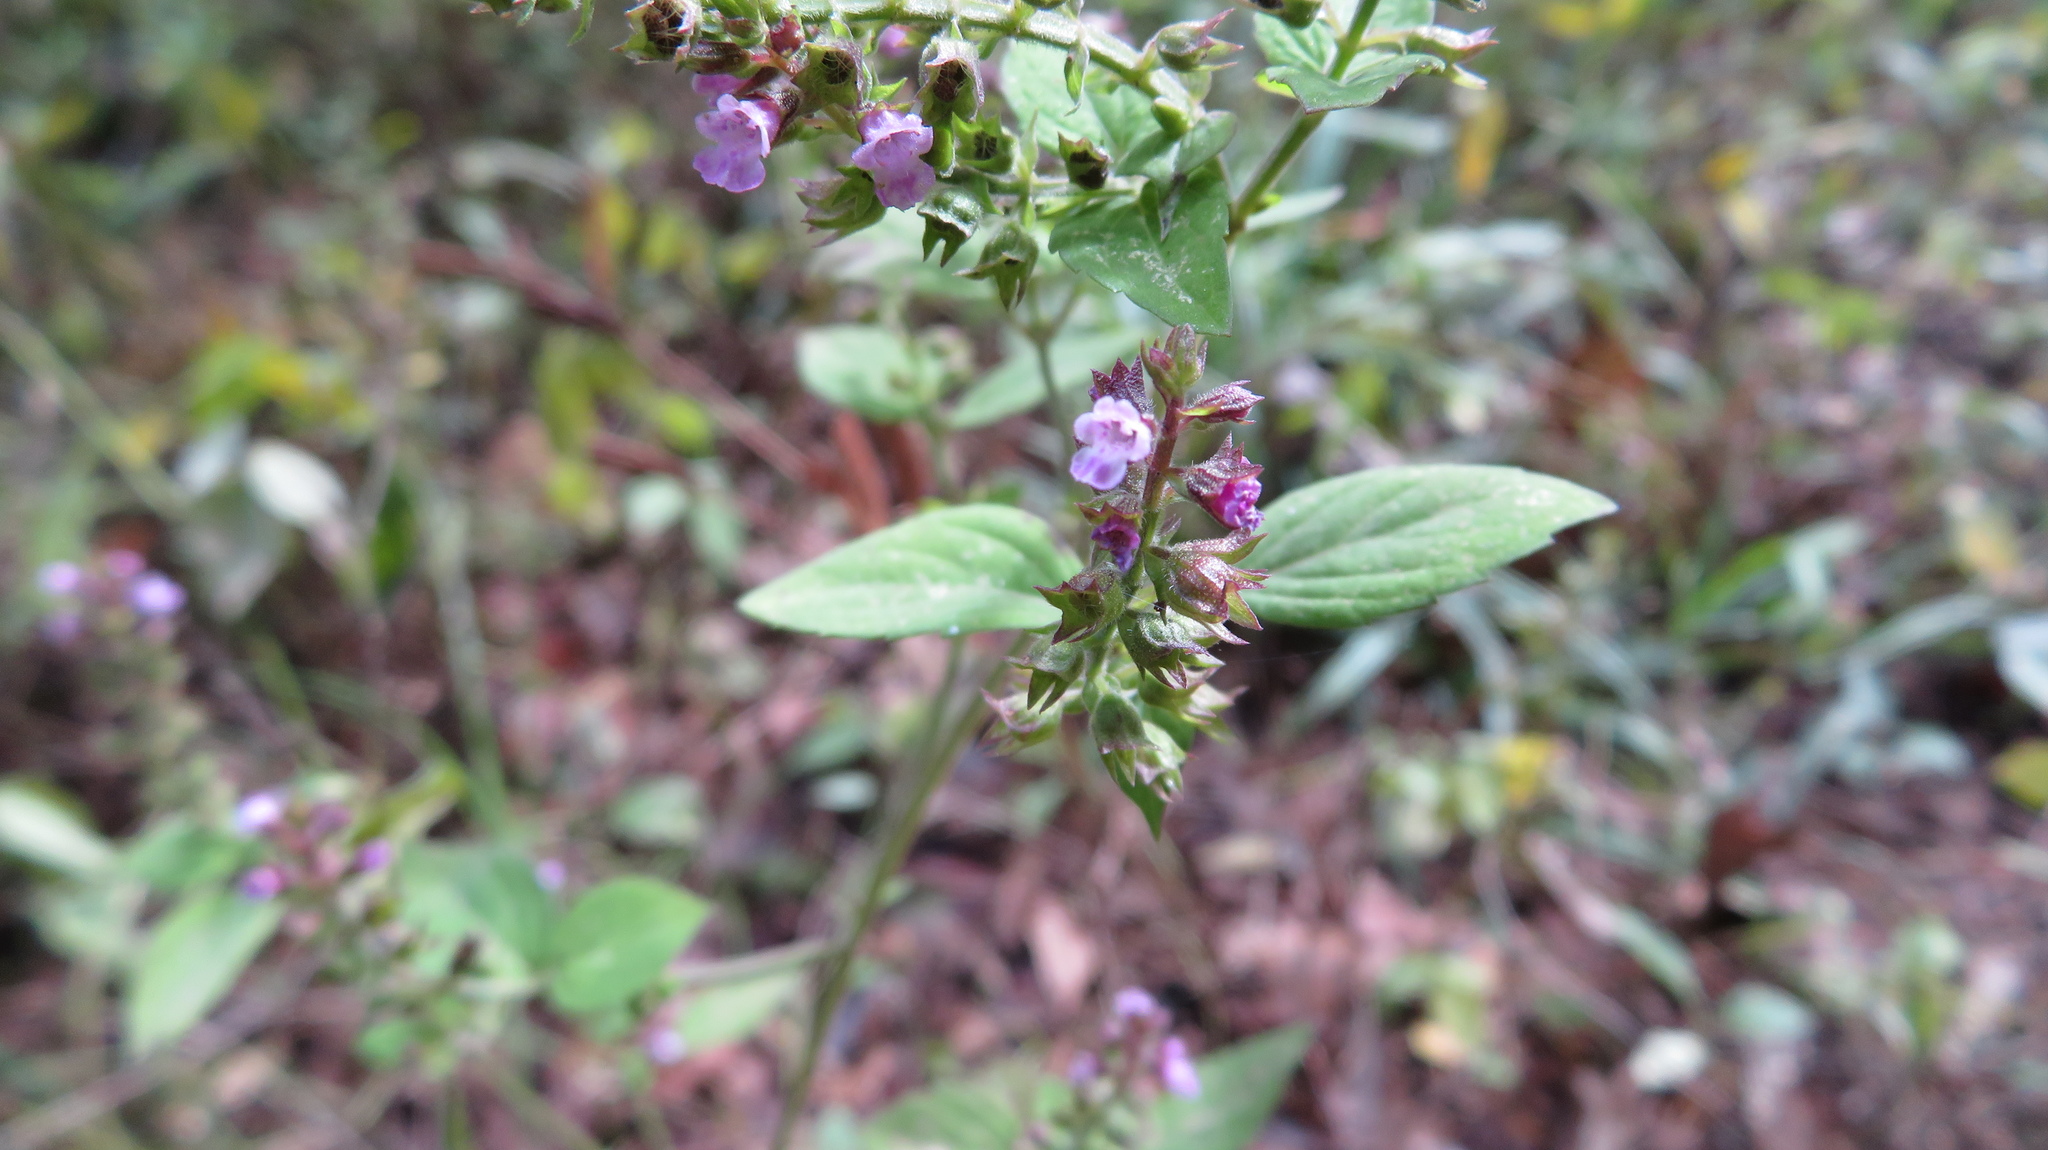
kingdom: Plantae
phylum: Tracheophyta
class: Magnoliopsida
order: Lamiales
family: Lamiaceae
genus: Mosla
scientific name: Mosla dianthera
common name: Miniature beefsteakplant
